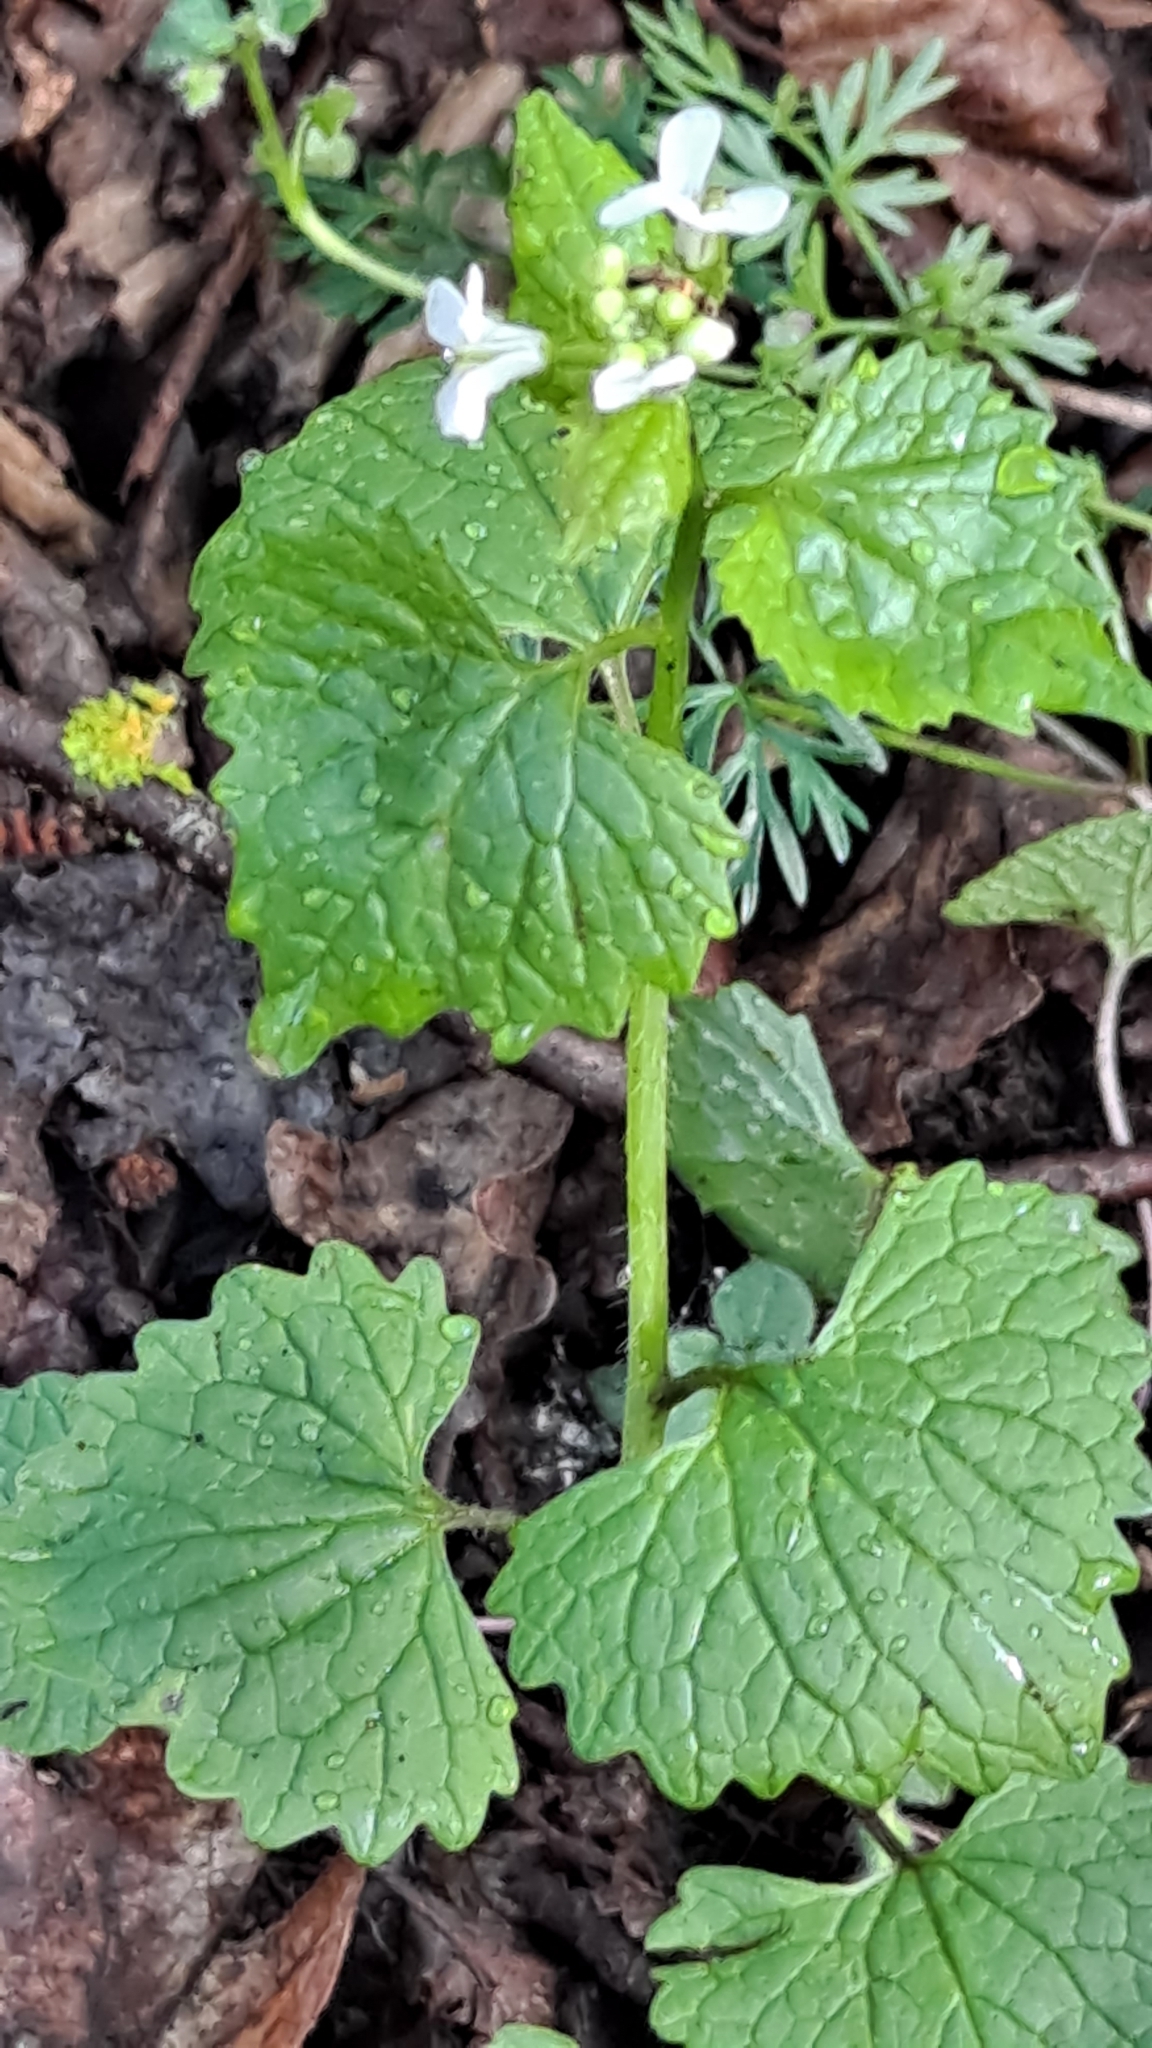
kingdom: Plantae
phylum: Tracheophyta
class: Magnoliopsida
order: Brassicales
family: Brassicaceae
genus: Alliaria
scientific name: Alliaria petiolata
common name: Garlic mustard
